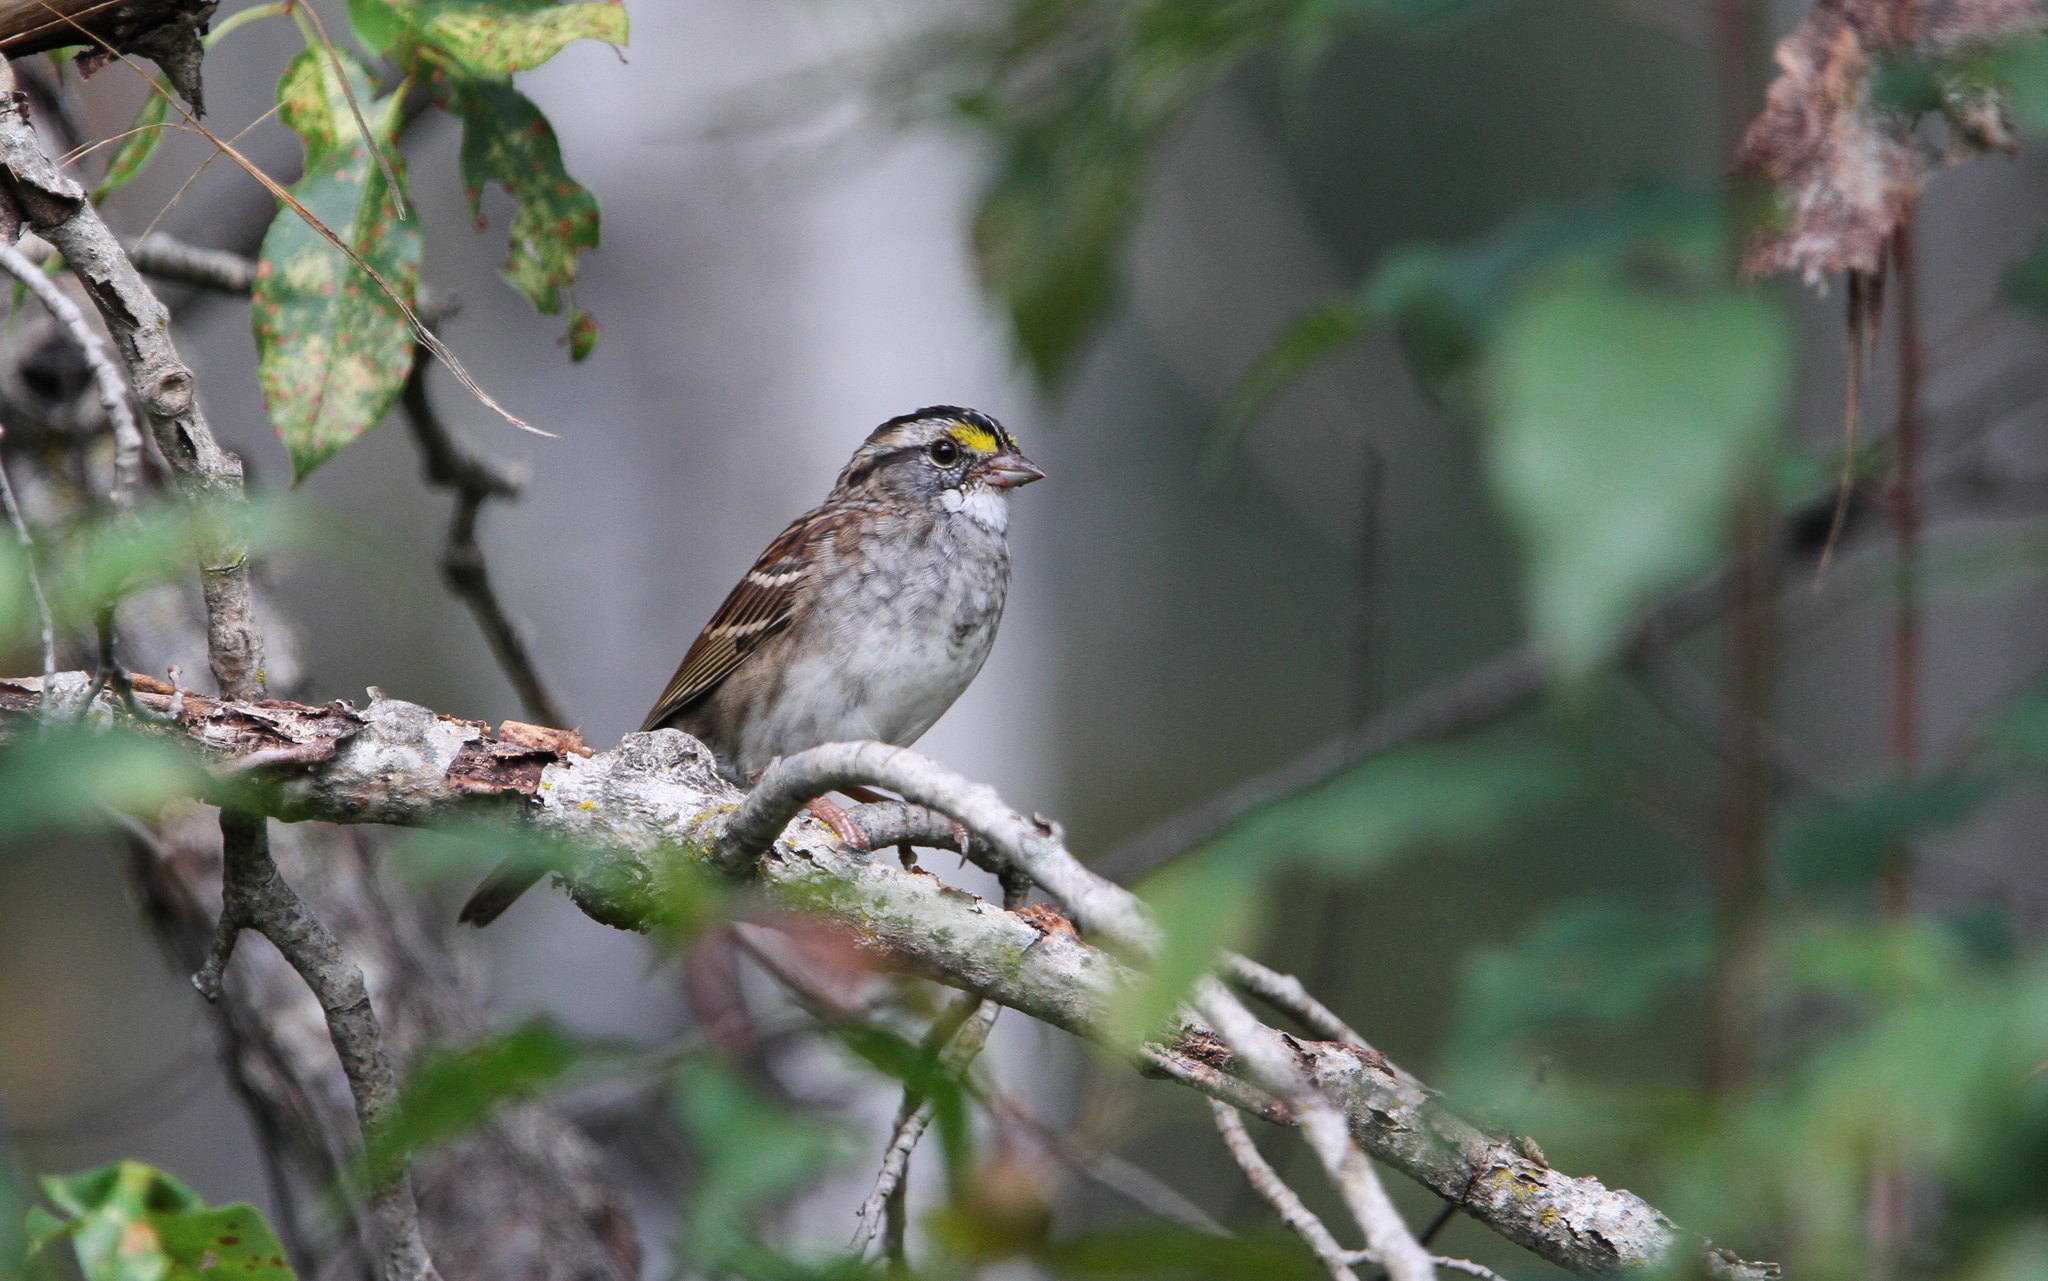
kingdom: Animalia
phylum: Chordata
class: Aves
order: Passeriformes
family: Passerellidae
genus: Zonotrichia
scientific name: Zonotrichia albicollis
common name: White-throated sparrow
